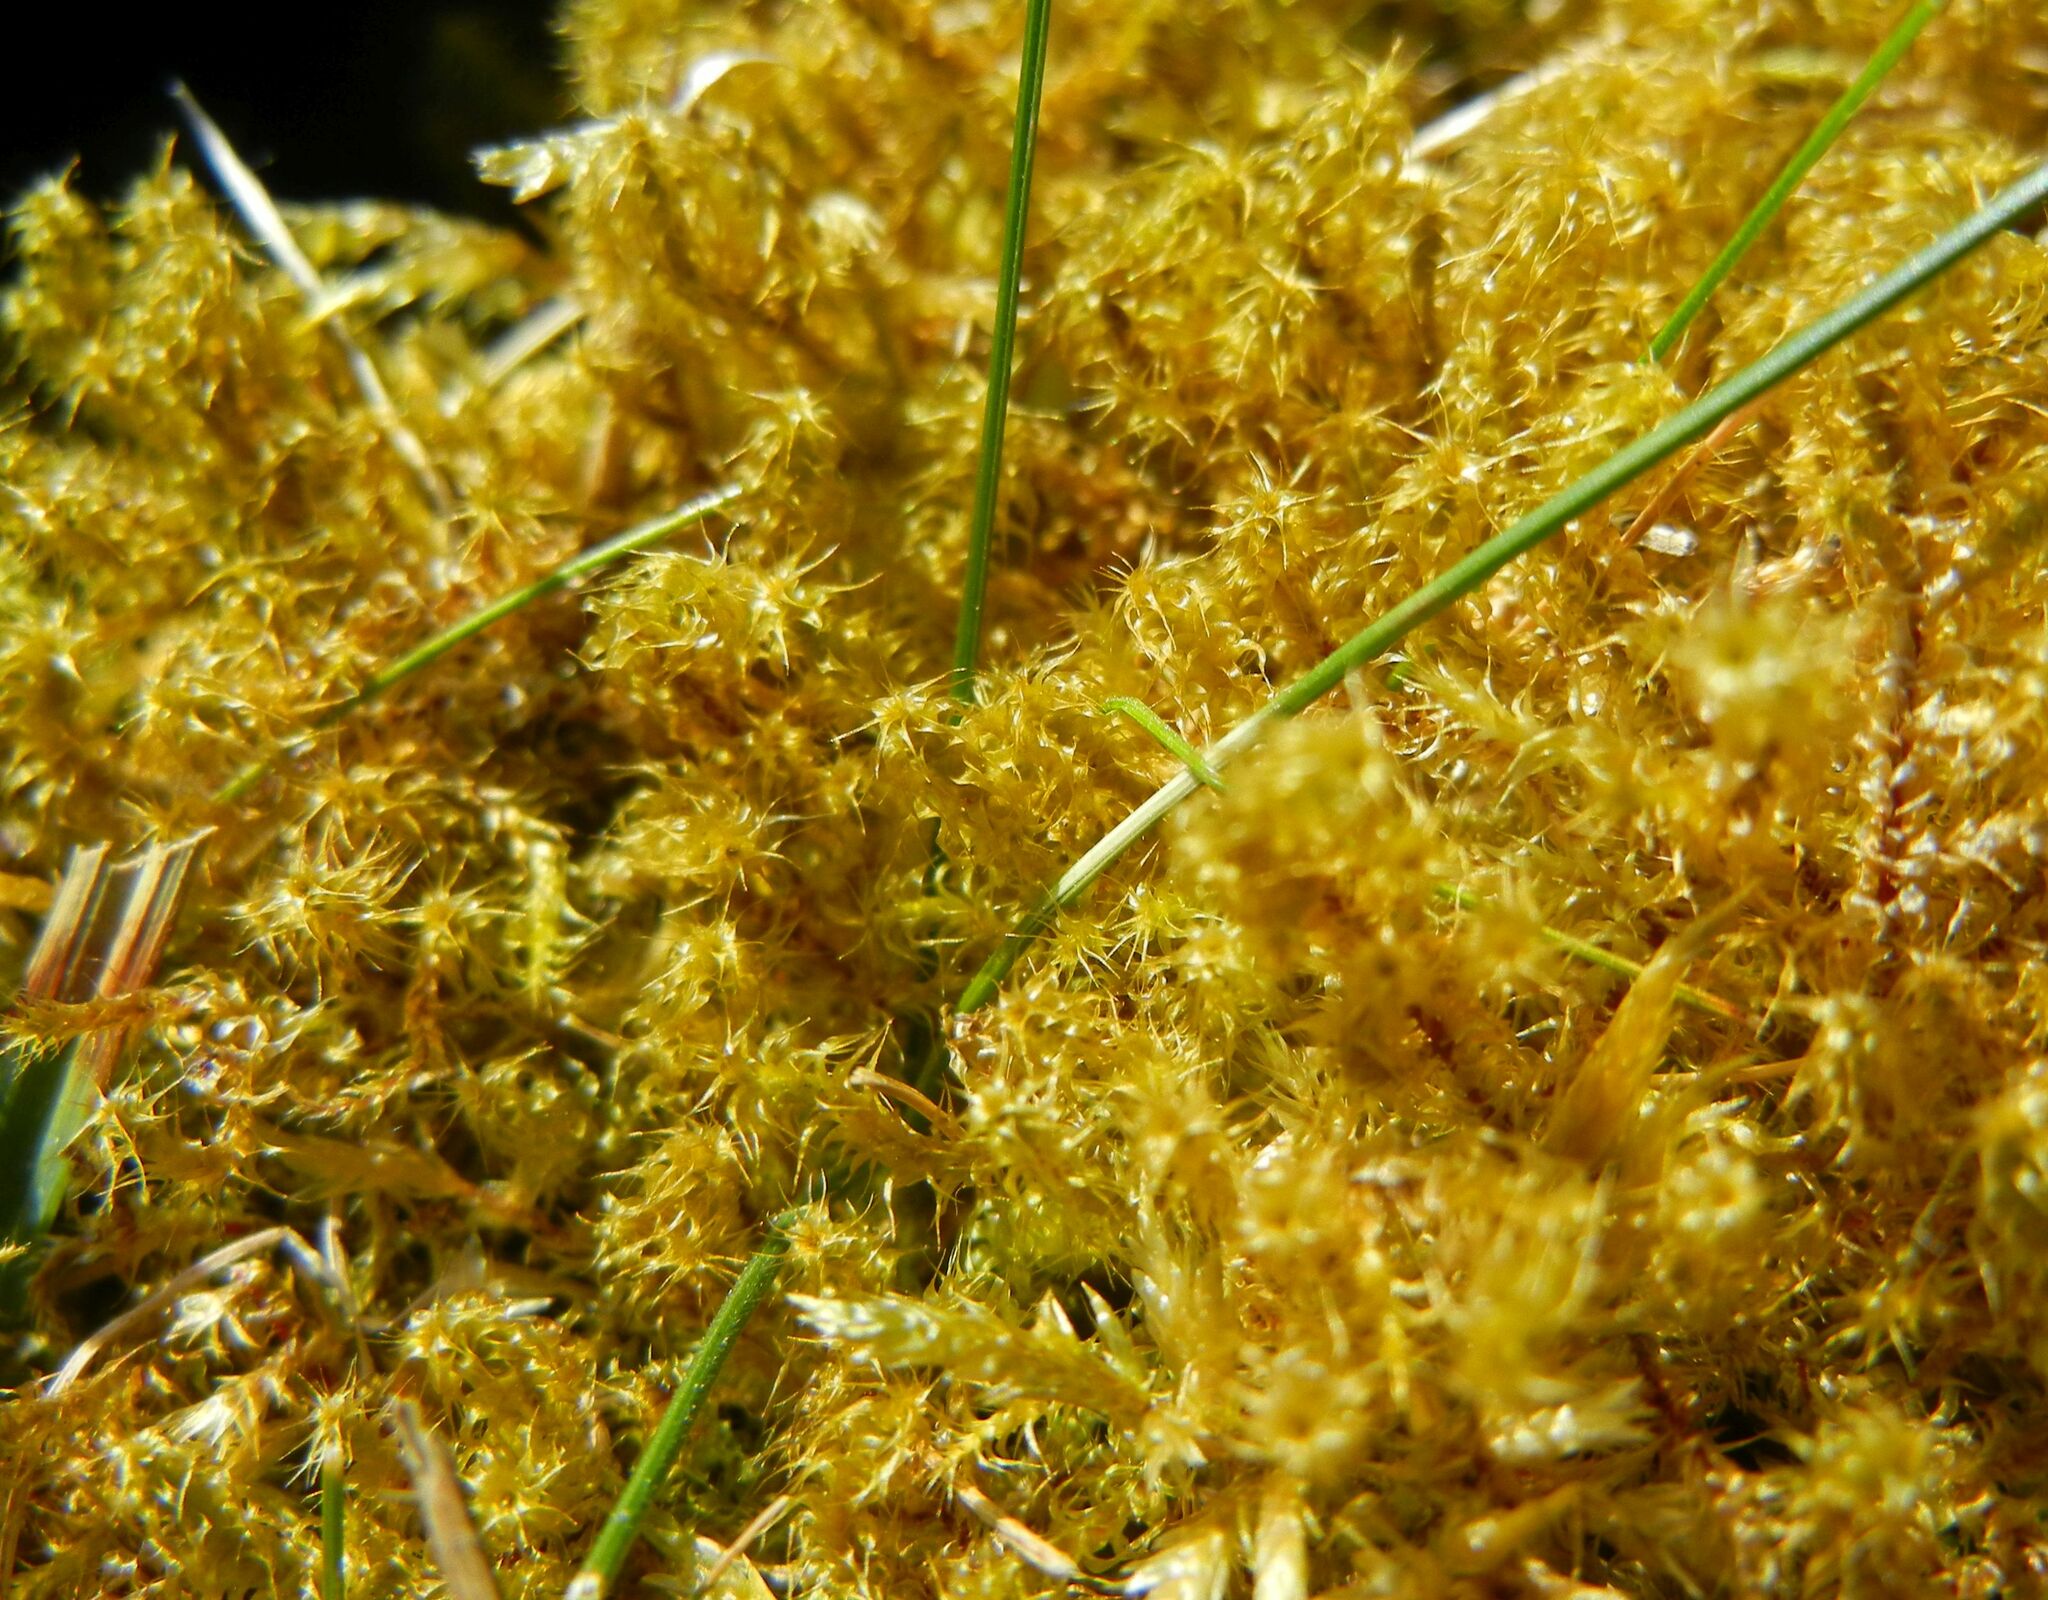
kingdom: Plantae
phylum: Bryophyta
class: Bryopsida
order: Hypnales
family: Hylocomiaceae
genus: Rhytidiadelphus
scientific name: Rhytidiadelphus squarrosus
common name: Springy turf-moss
